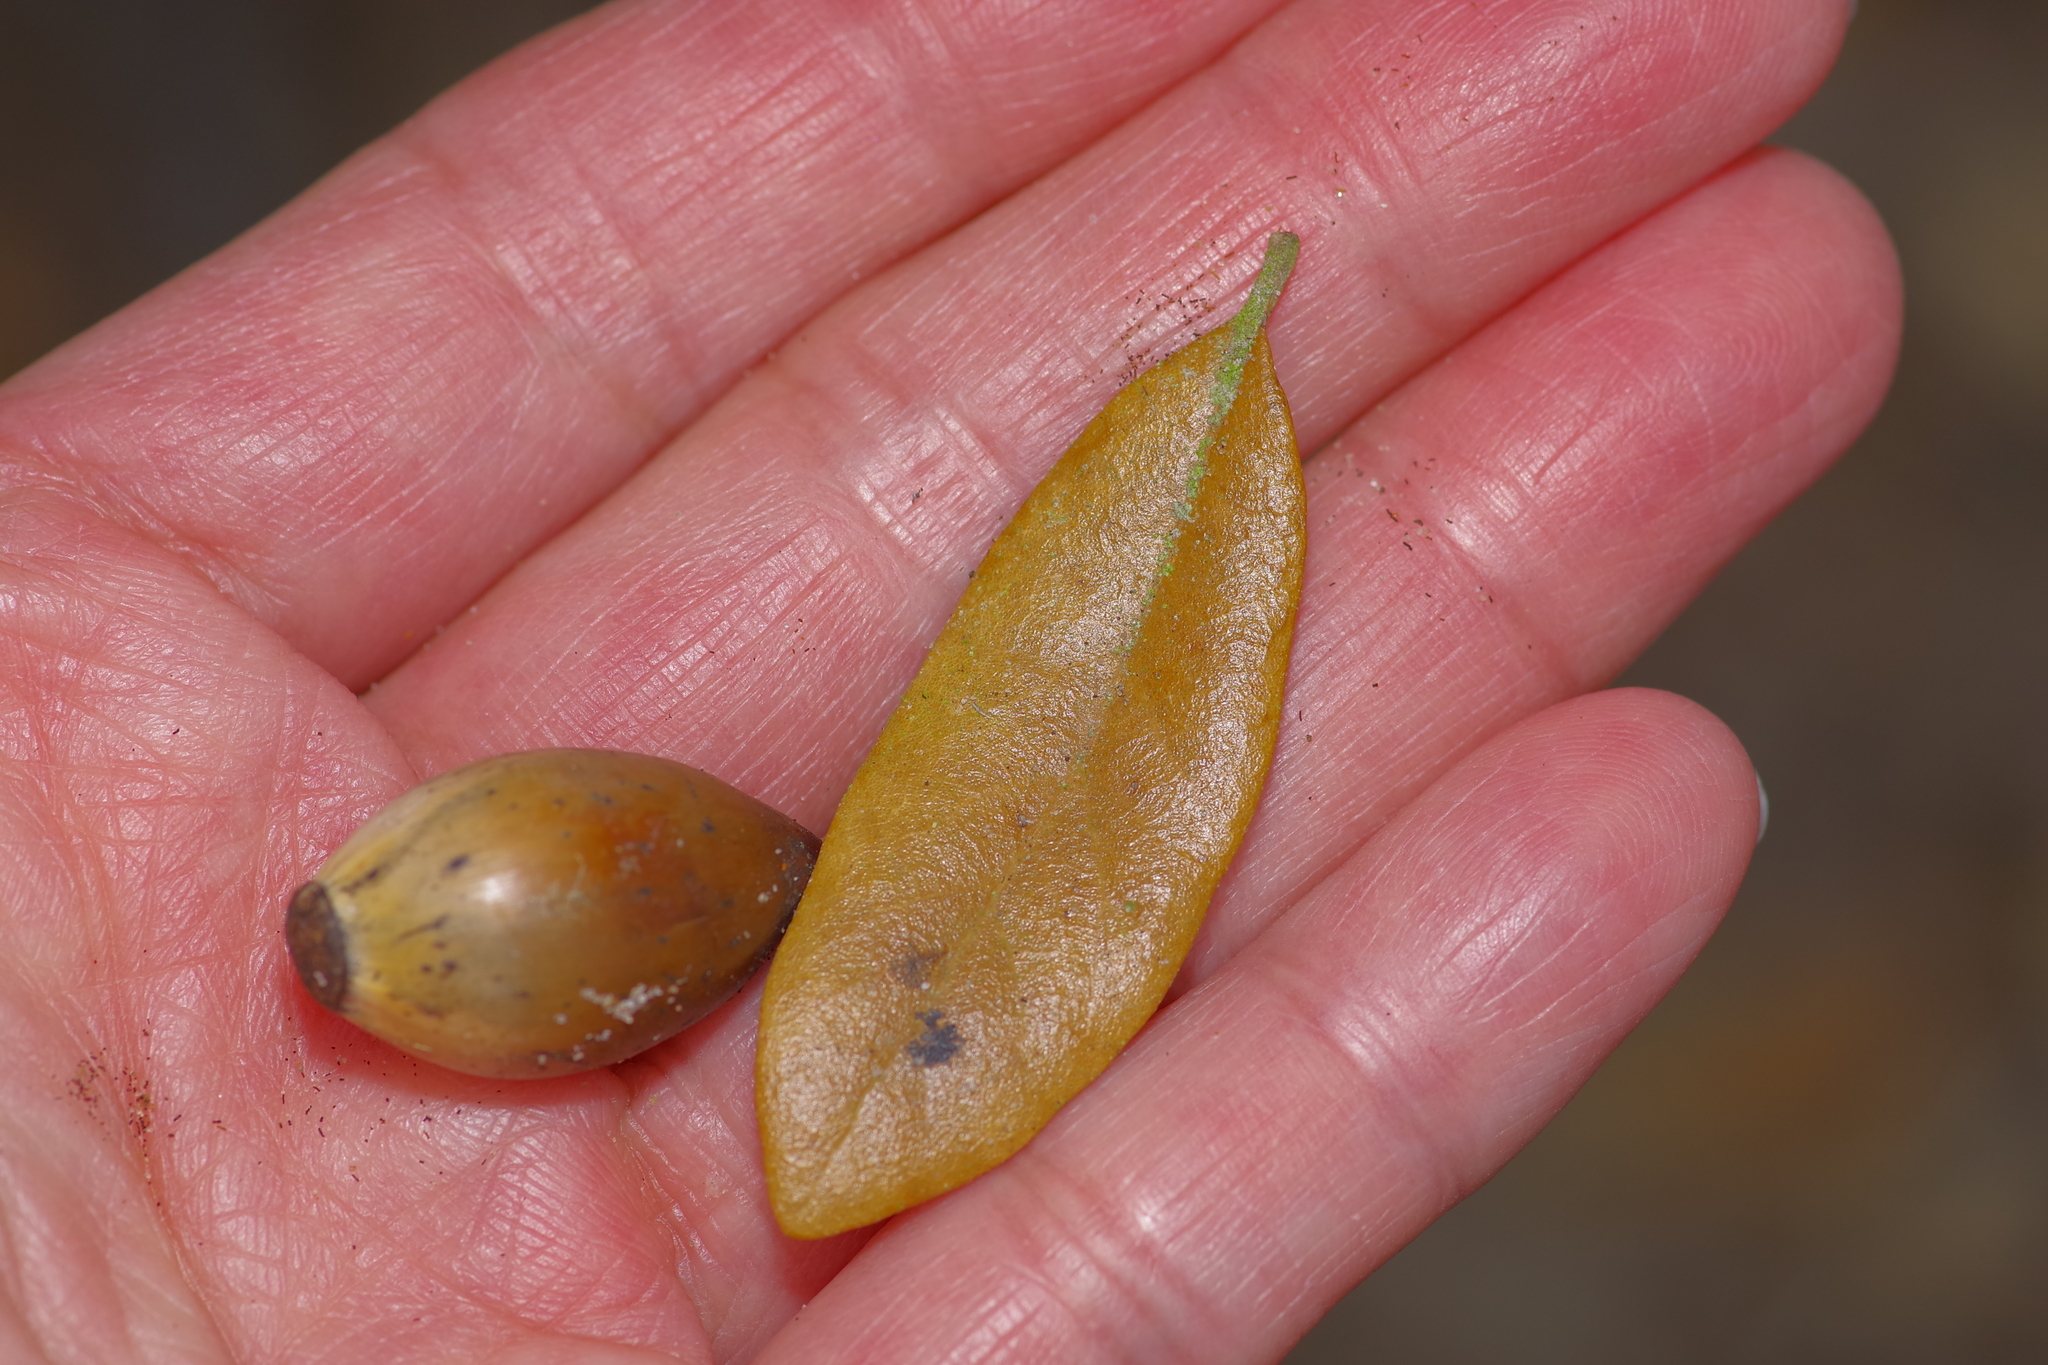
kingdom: Plantae
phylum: Tracheophyta
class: Magnoliopsida
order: Fagales
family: Fagaceae
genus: Quercus
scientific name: Quercus fusiformis
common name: Texas live oak
